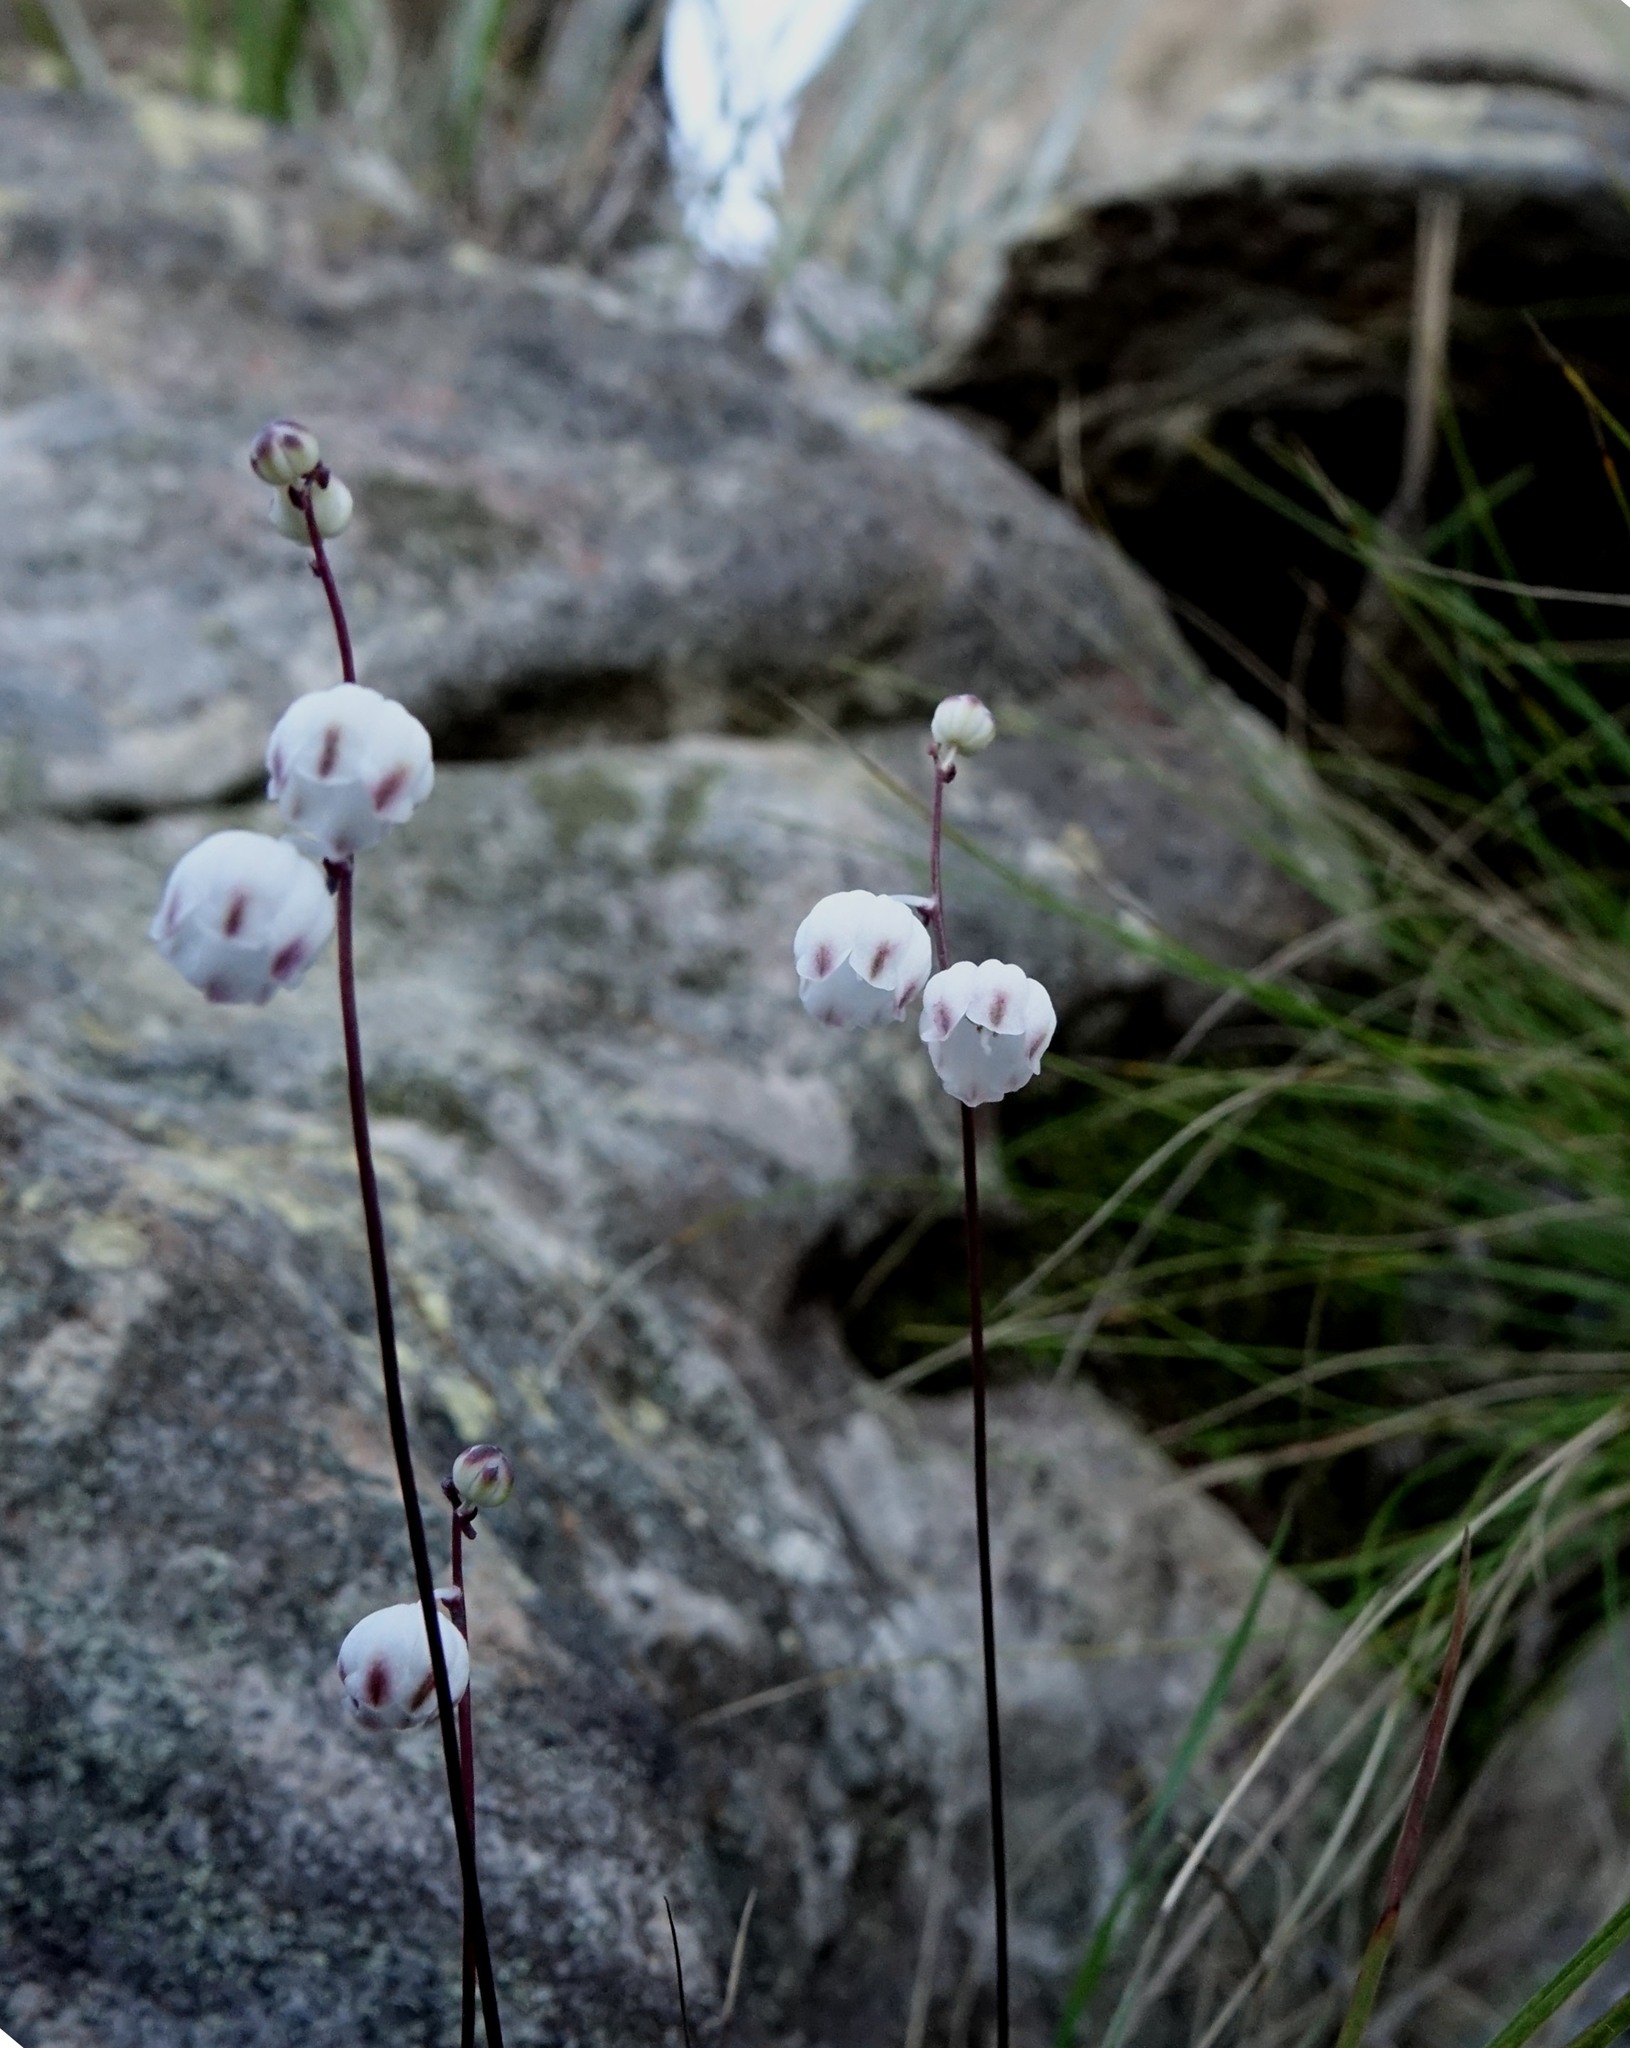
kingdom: Plantae
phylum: Tracheophyta
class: Liliopsida
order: Asparagales
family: Asparagaceae
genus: Drimia
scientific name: Drimia
